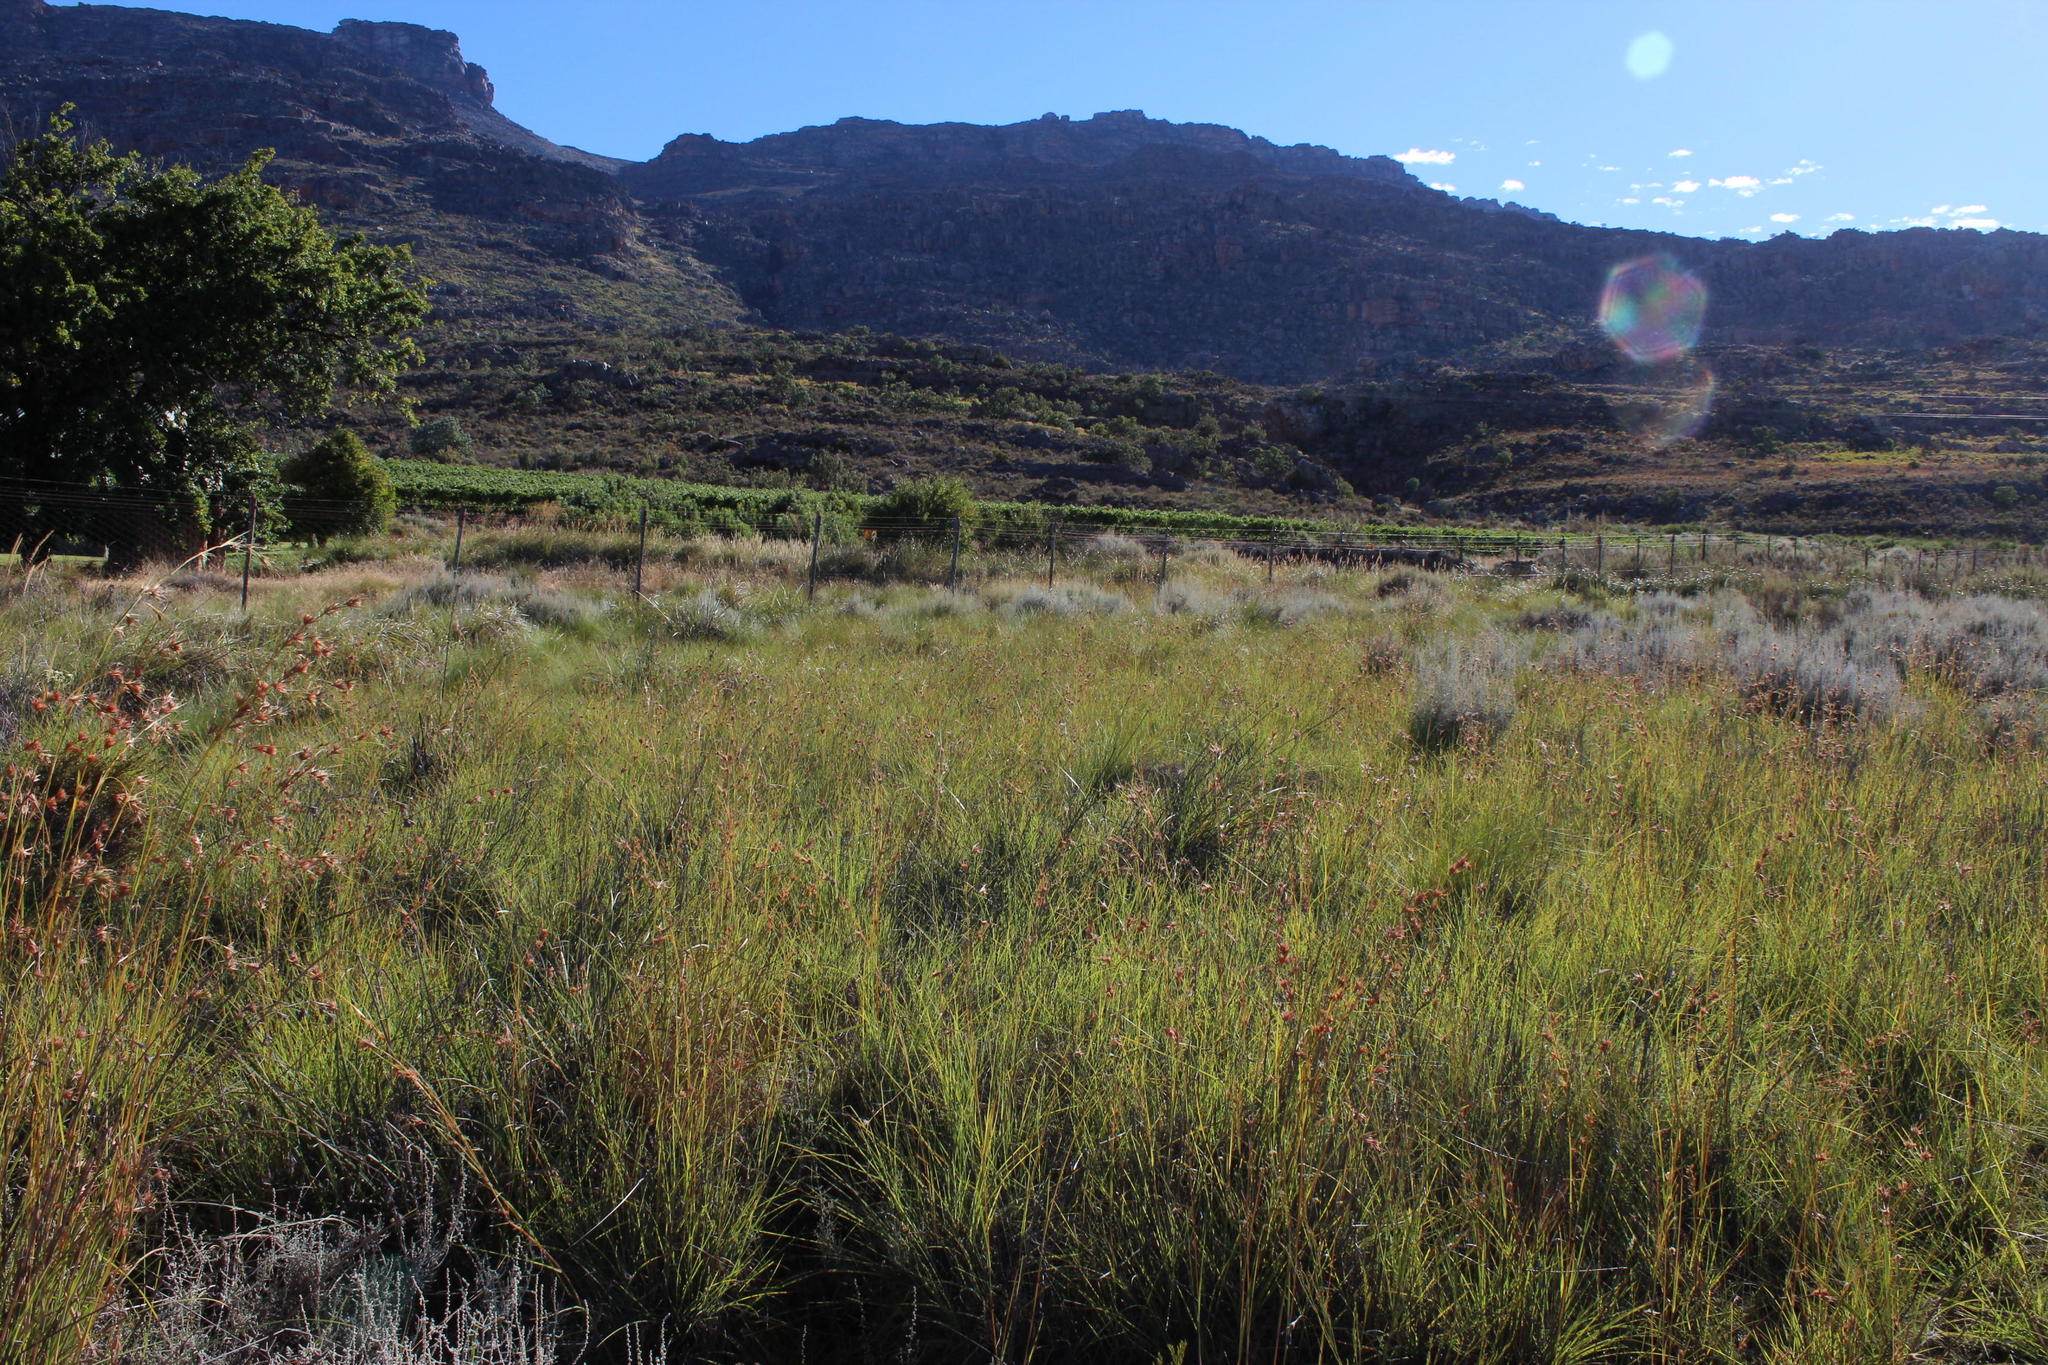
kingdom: Plantae
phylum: Tracheophyta
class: Liliopsida
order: Poales
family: Poaceae
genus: Themeda
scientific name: Themeda triandra
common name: Kangaroo grass
